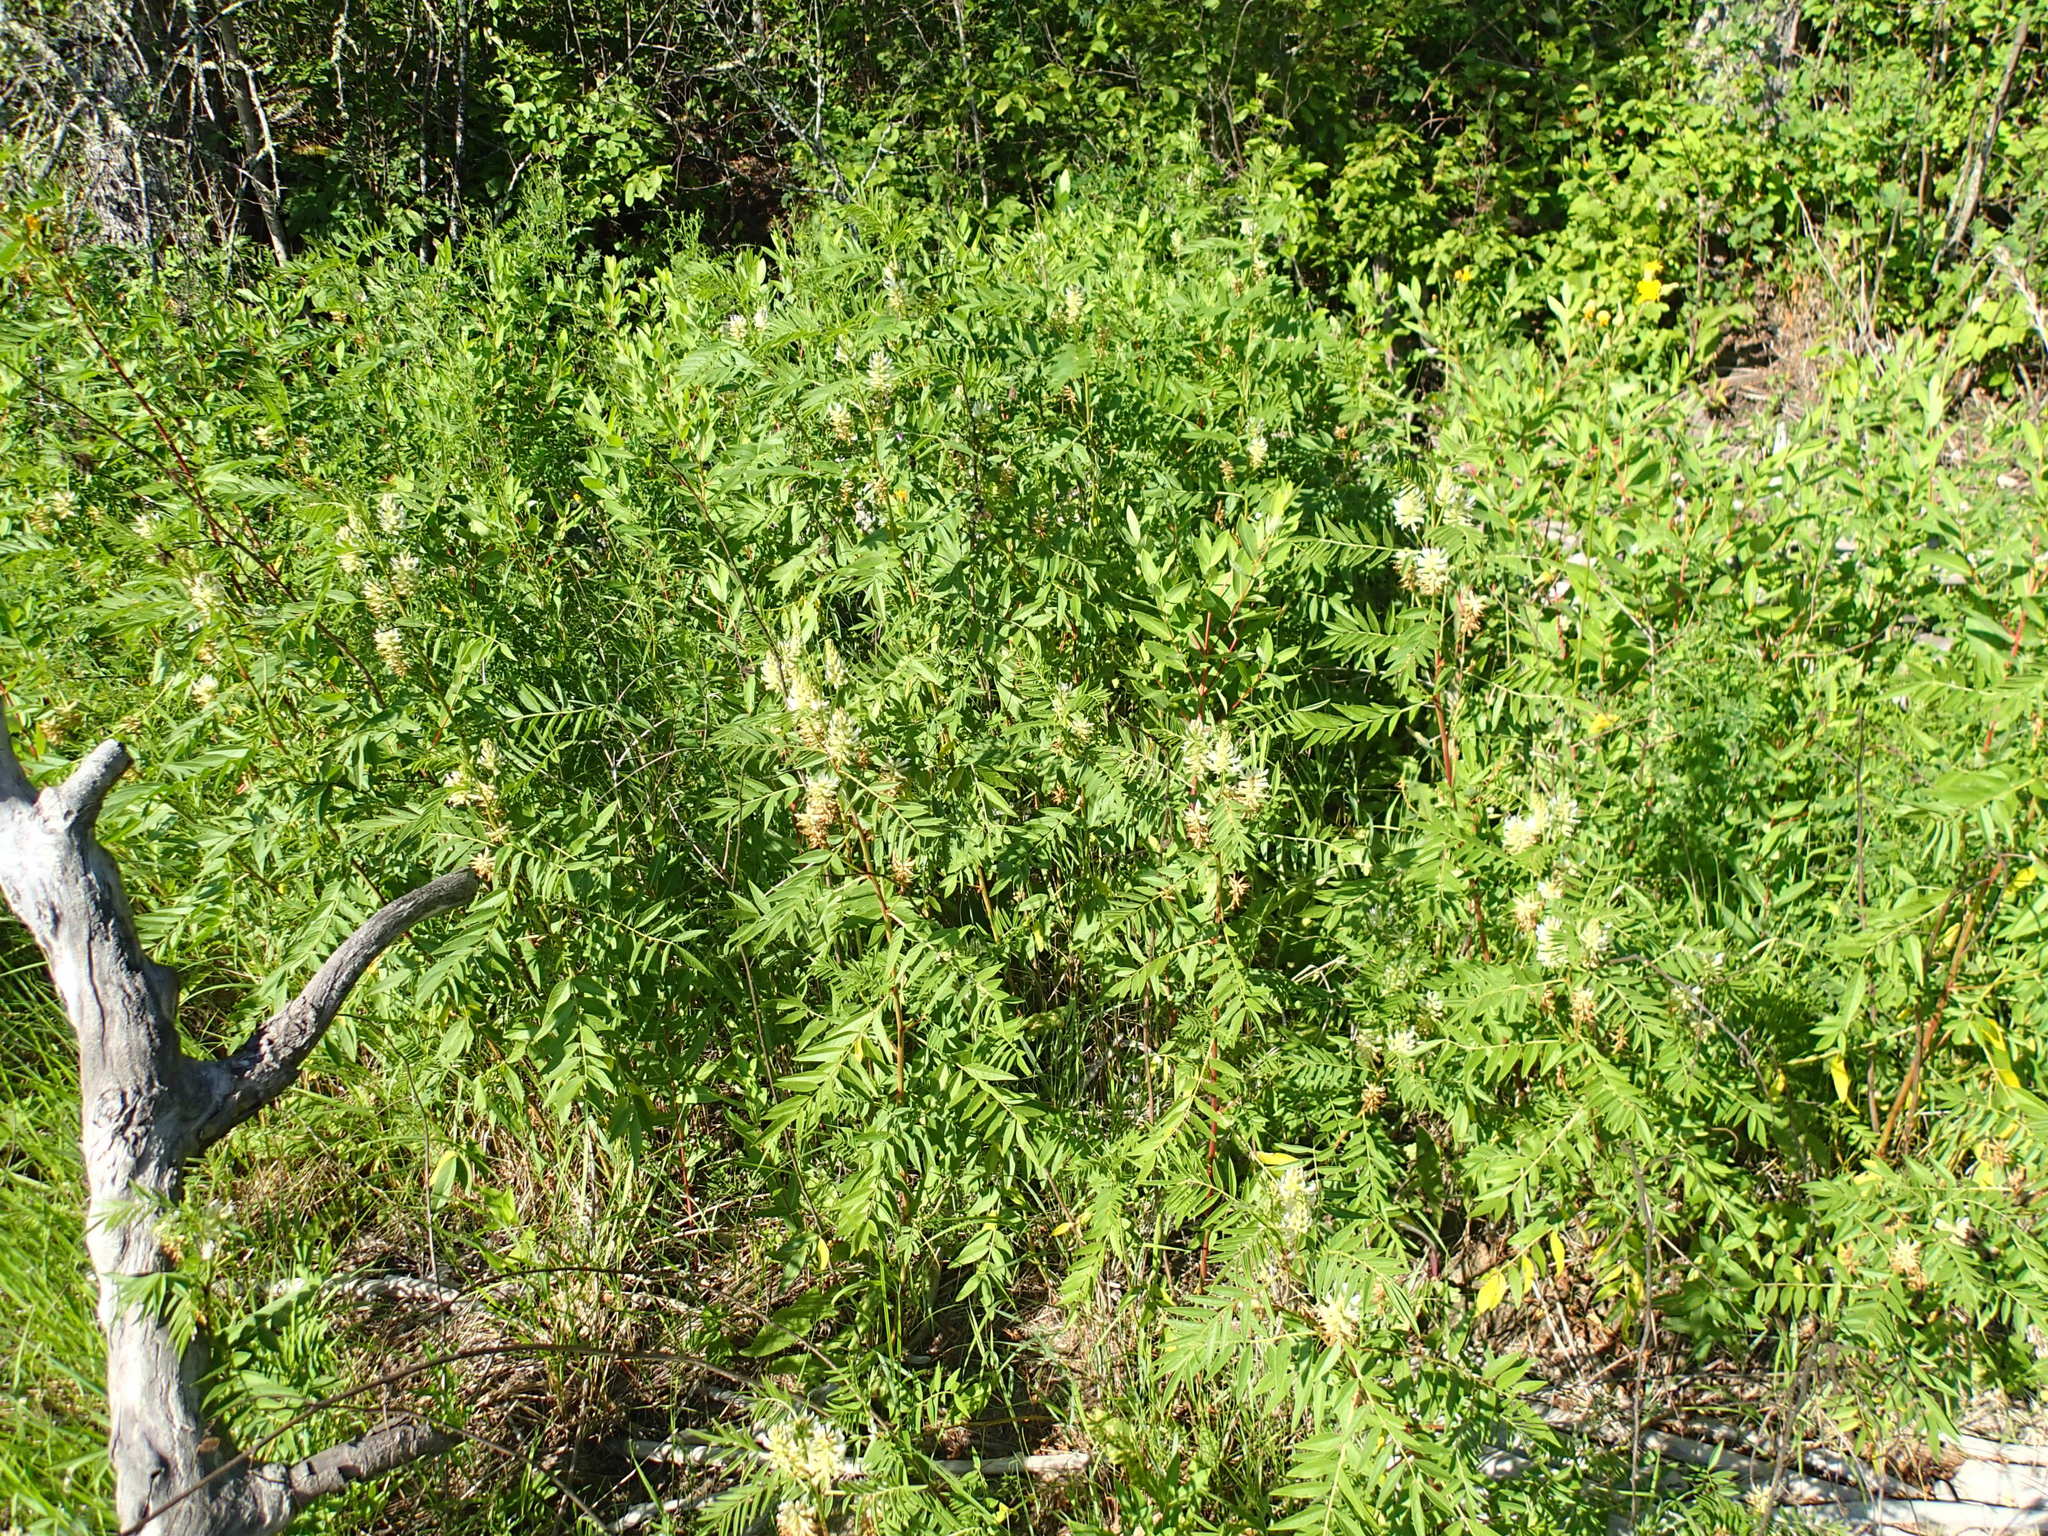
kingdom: Plantae
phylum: Tracheophyta
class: Magnoliopsida
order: Fabales
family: Fabaceae
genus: Glycyrrhiza
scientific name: Glycyrrhiza lepidota
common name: American liquorice
